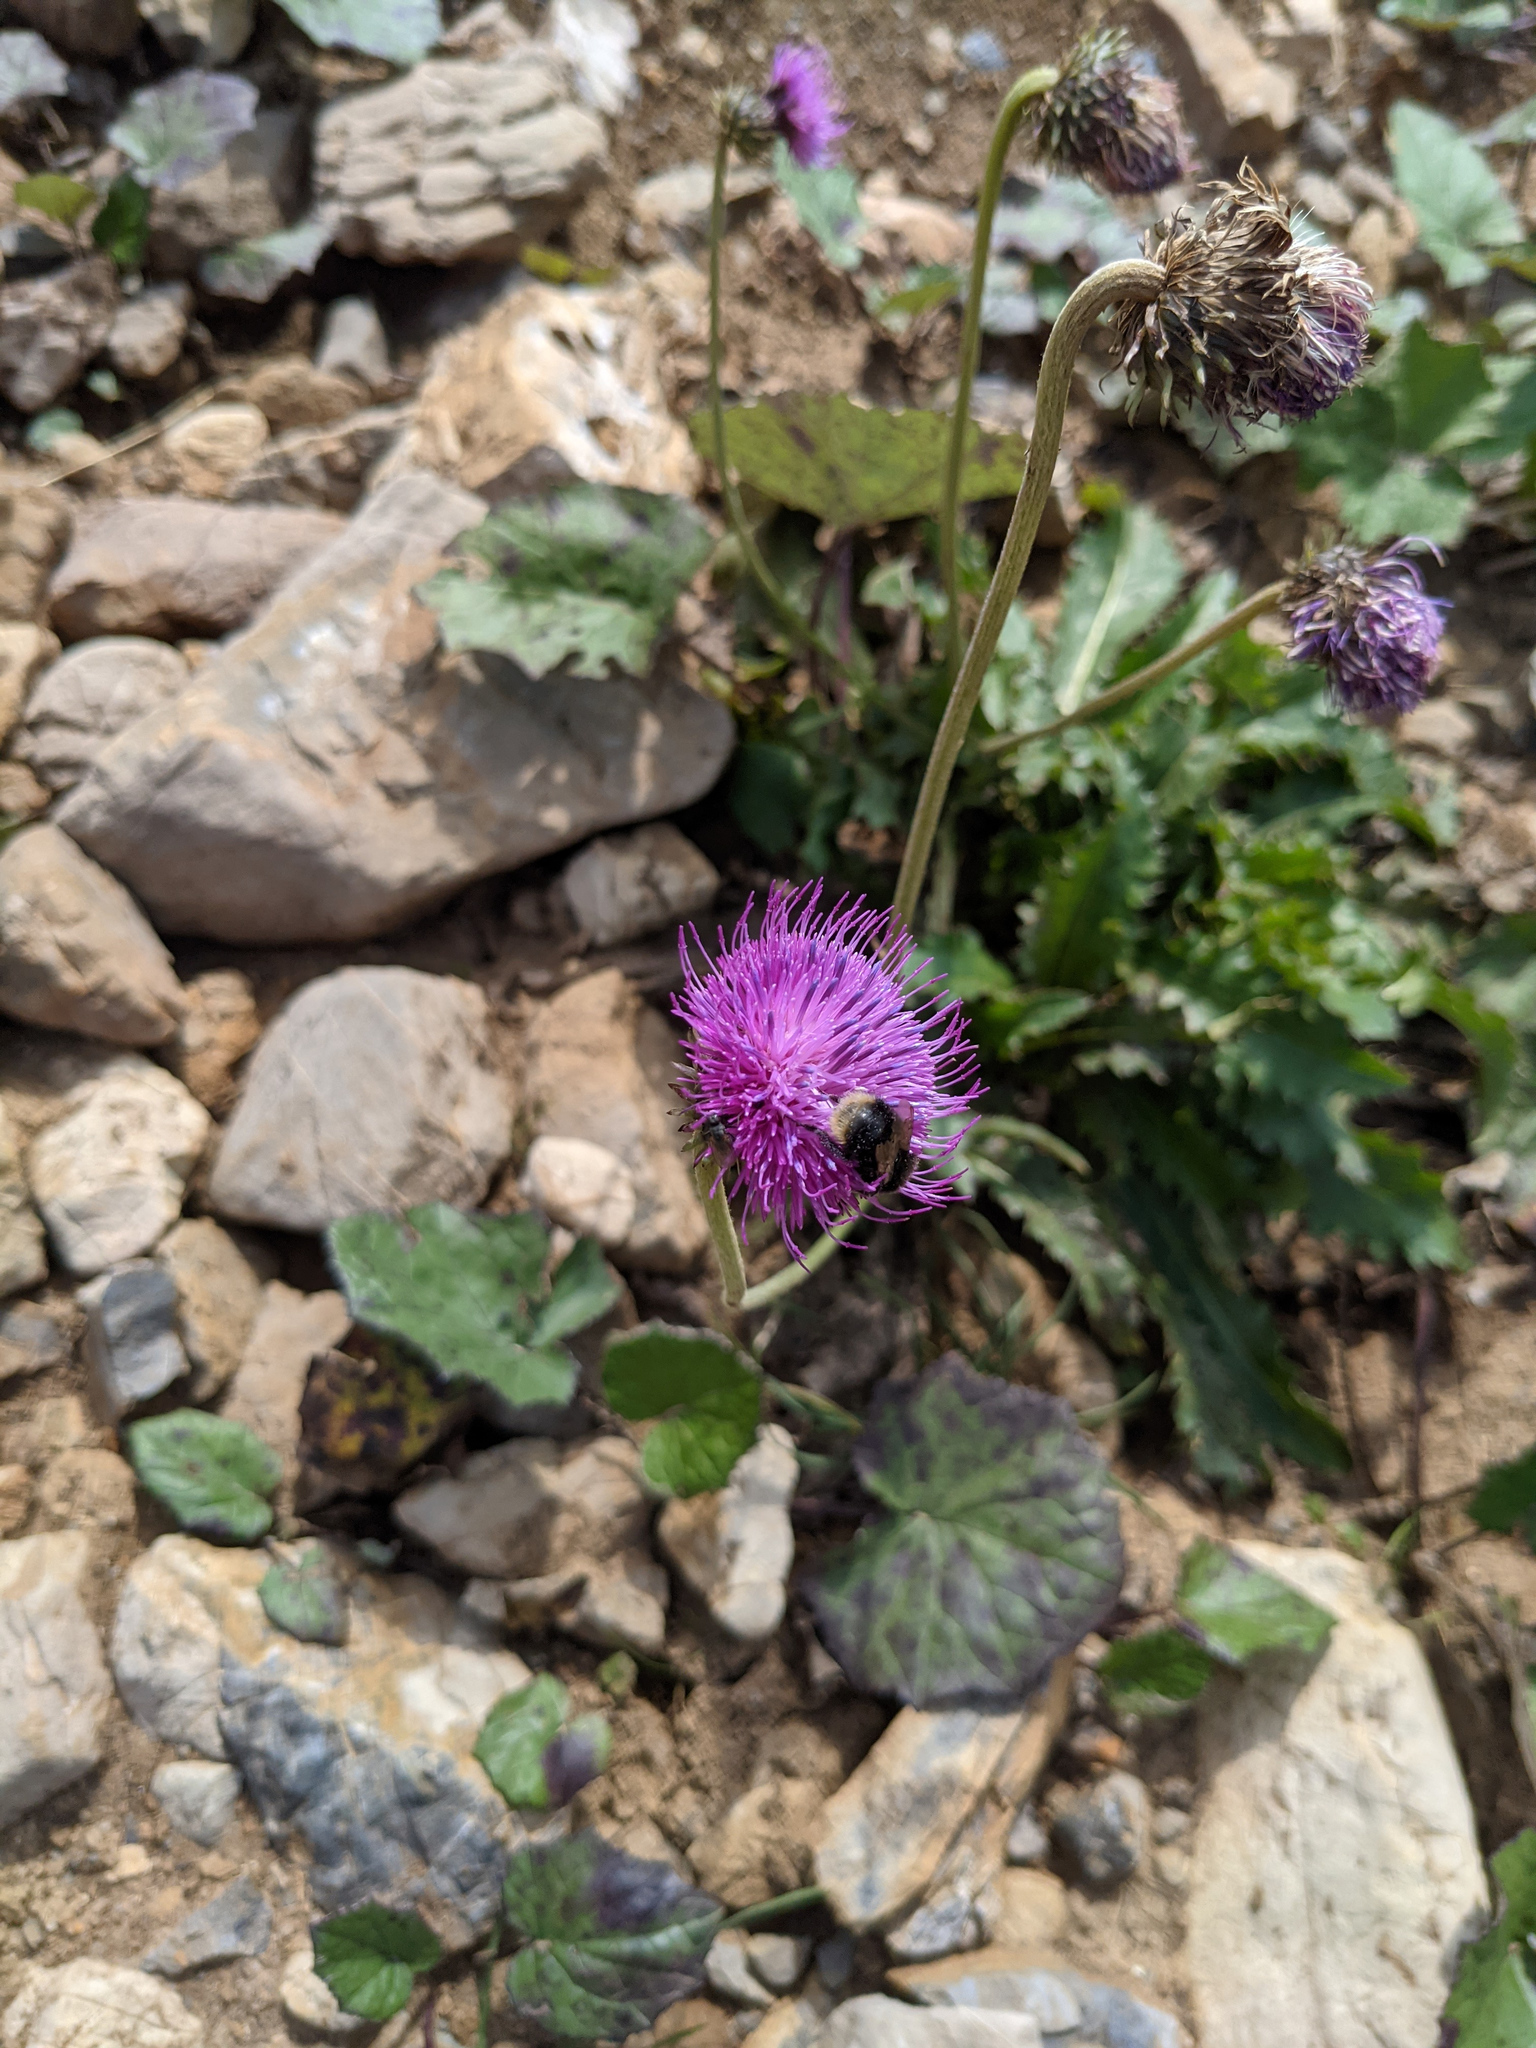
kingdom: Plantae
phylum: Tracheophyta
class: Magnoliopsida
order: Asterales
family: Asteraceae
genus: Carduus
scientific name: Carduus defloratus
